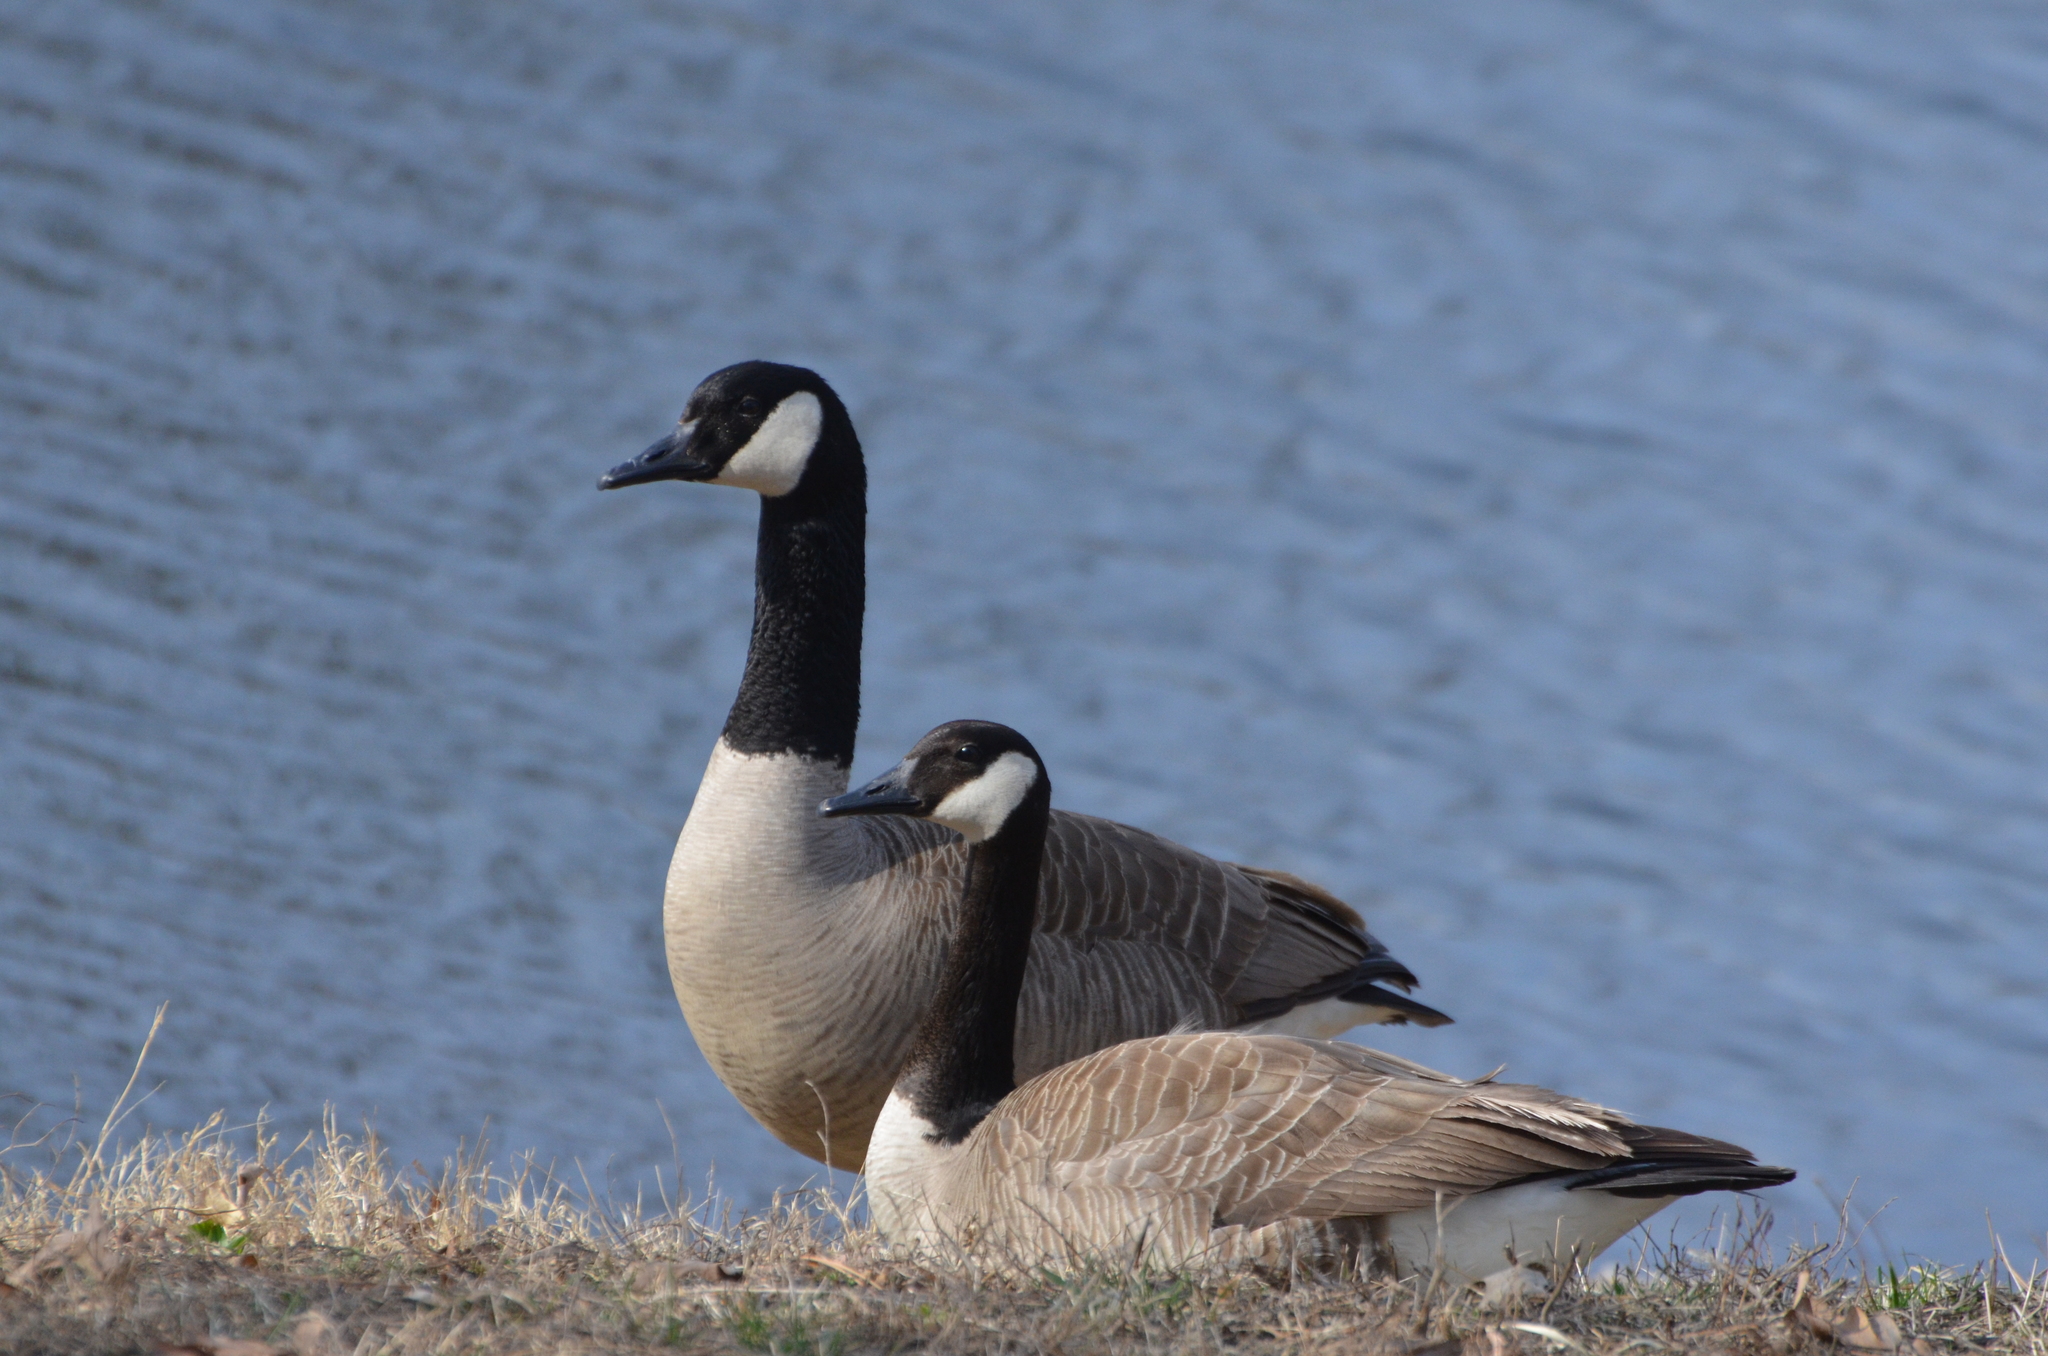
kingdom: Animalia
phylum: Chordata
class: Aves
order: Anseriformes
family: Anatidae
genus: Branta
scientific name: Branta canadensis
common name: Canada goose
